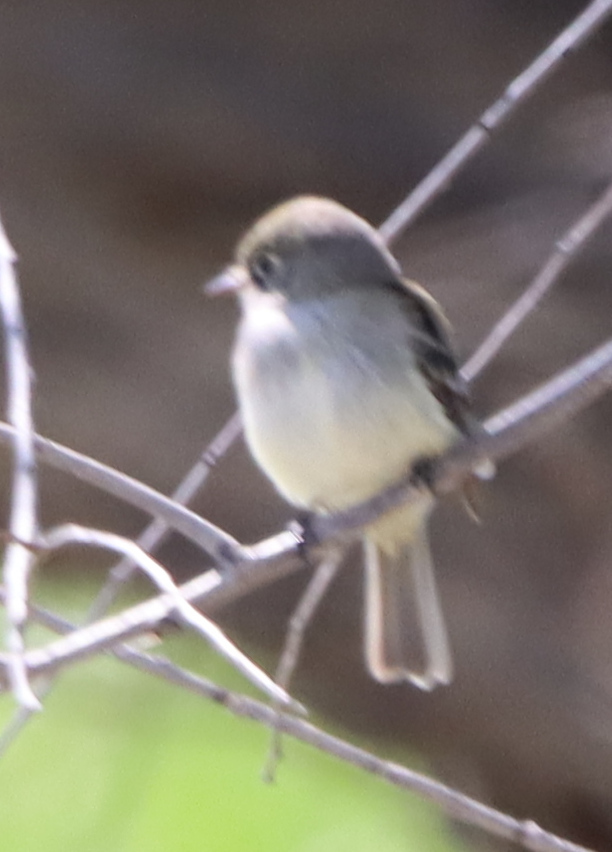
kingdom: Animalia
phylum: Chordata
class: Aves
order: Passeriformes
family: Tyrannidae
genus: Empidonax
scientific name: Empidonax minimus
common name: Least flycatcher
